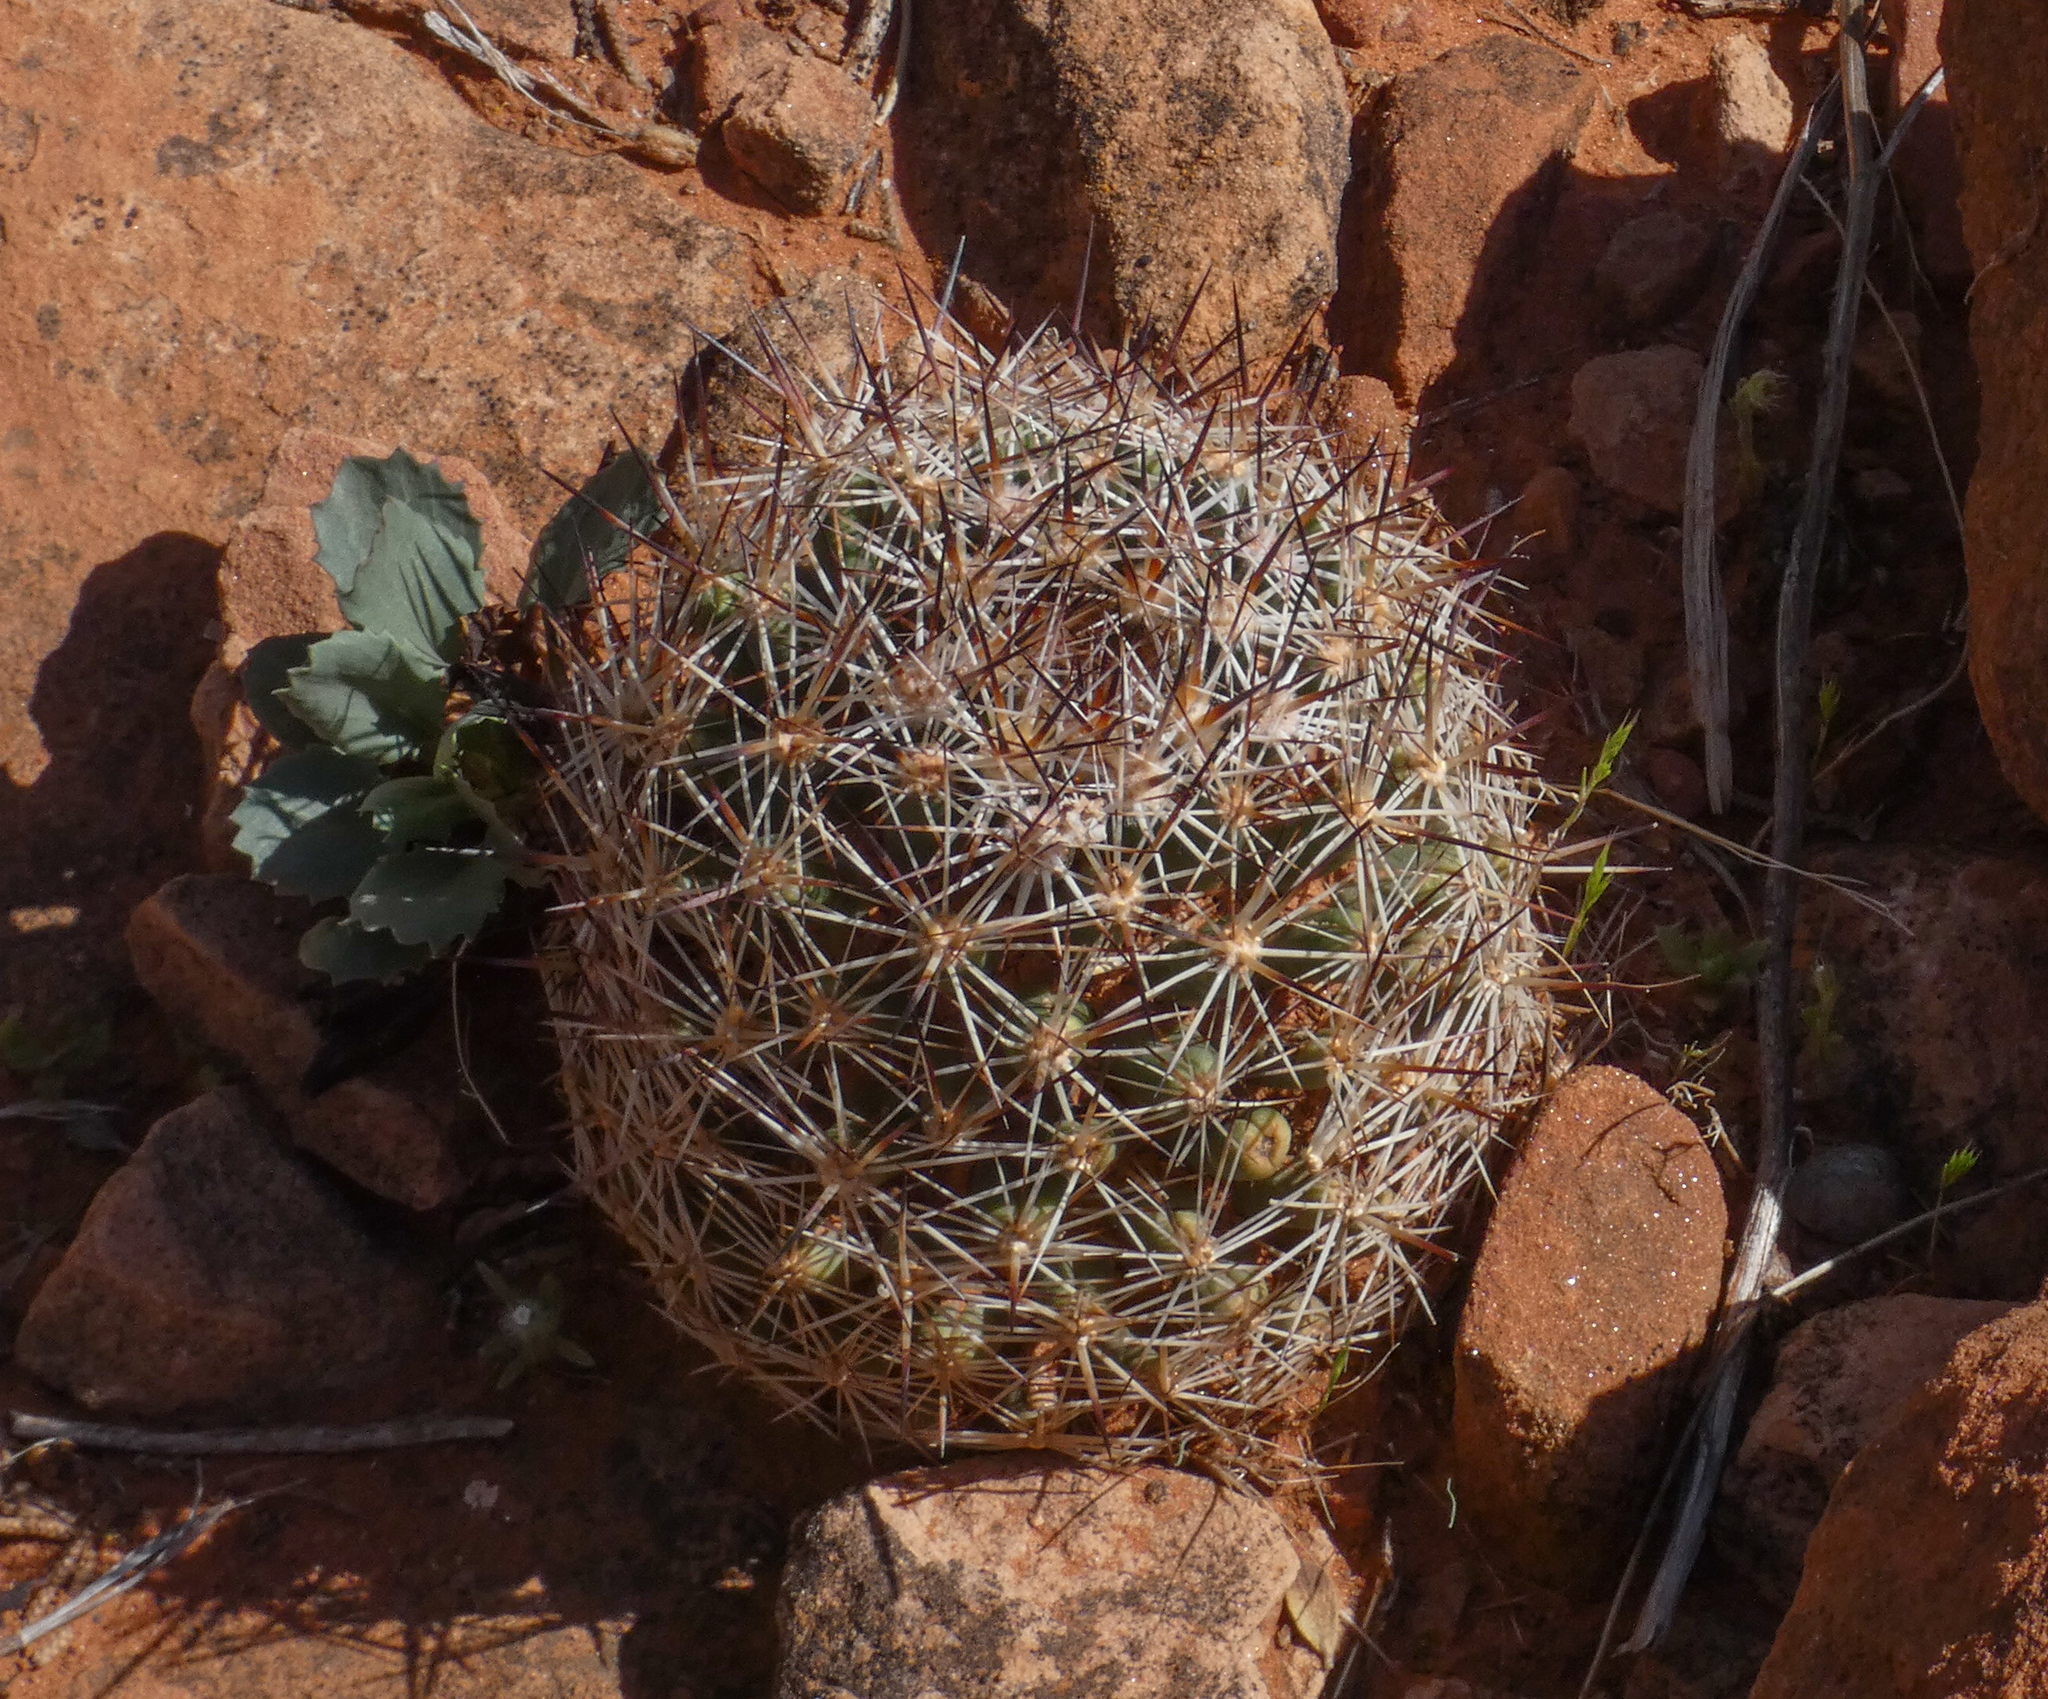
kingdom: Plantae
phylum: Tracheophyta
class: Magnoliopsida
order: Caryophyllales
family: Cactaceae
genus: Pelecyphora
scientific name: Pelecyphora vivipara
